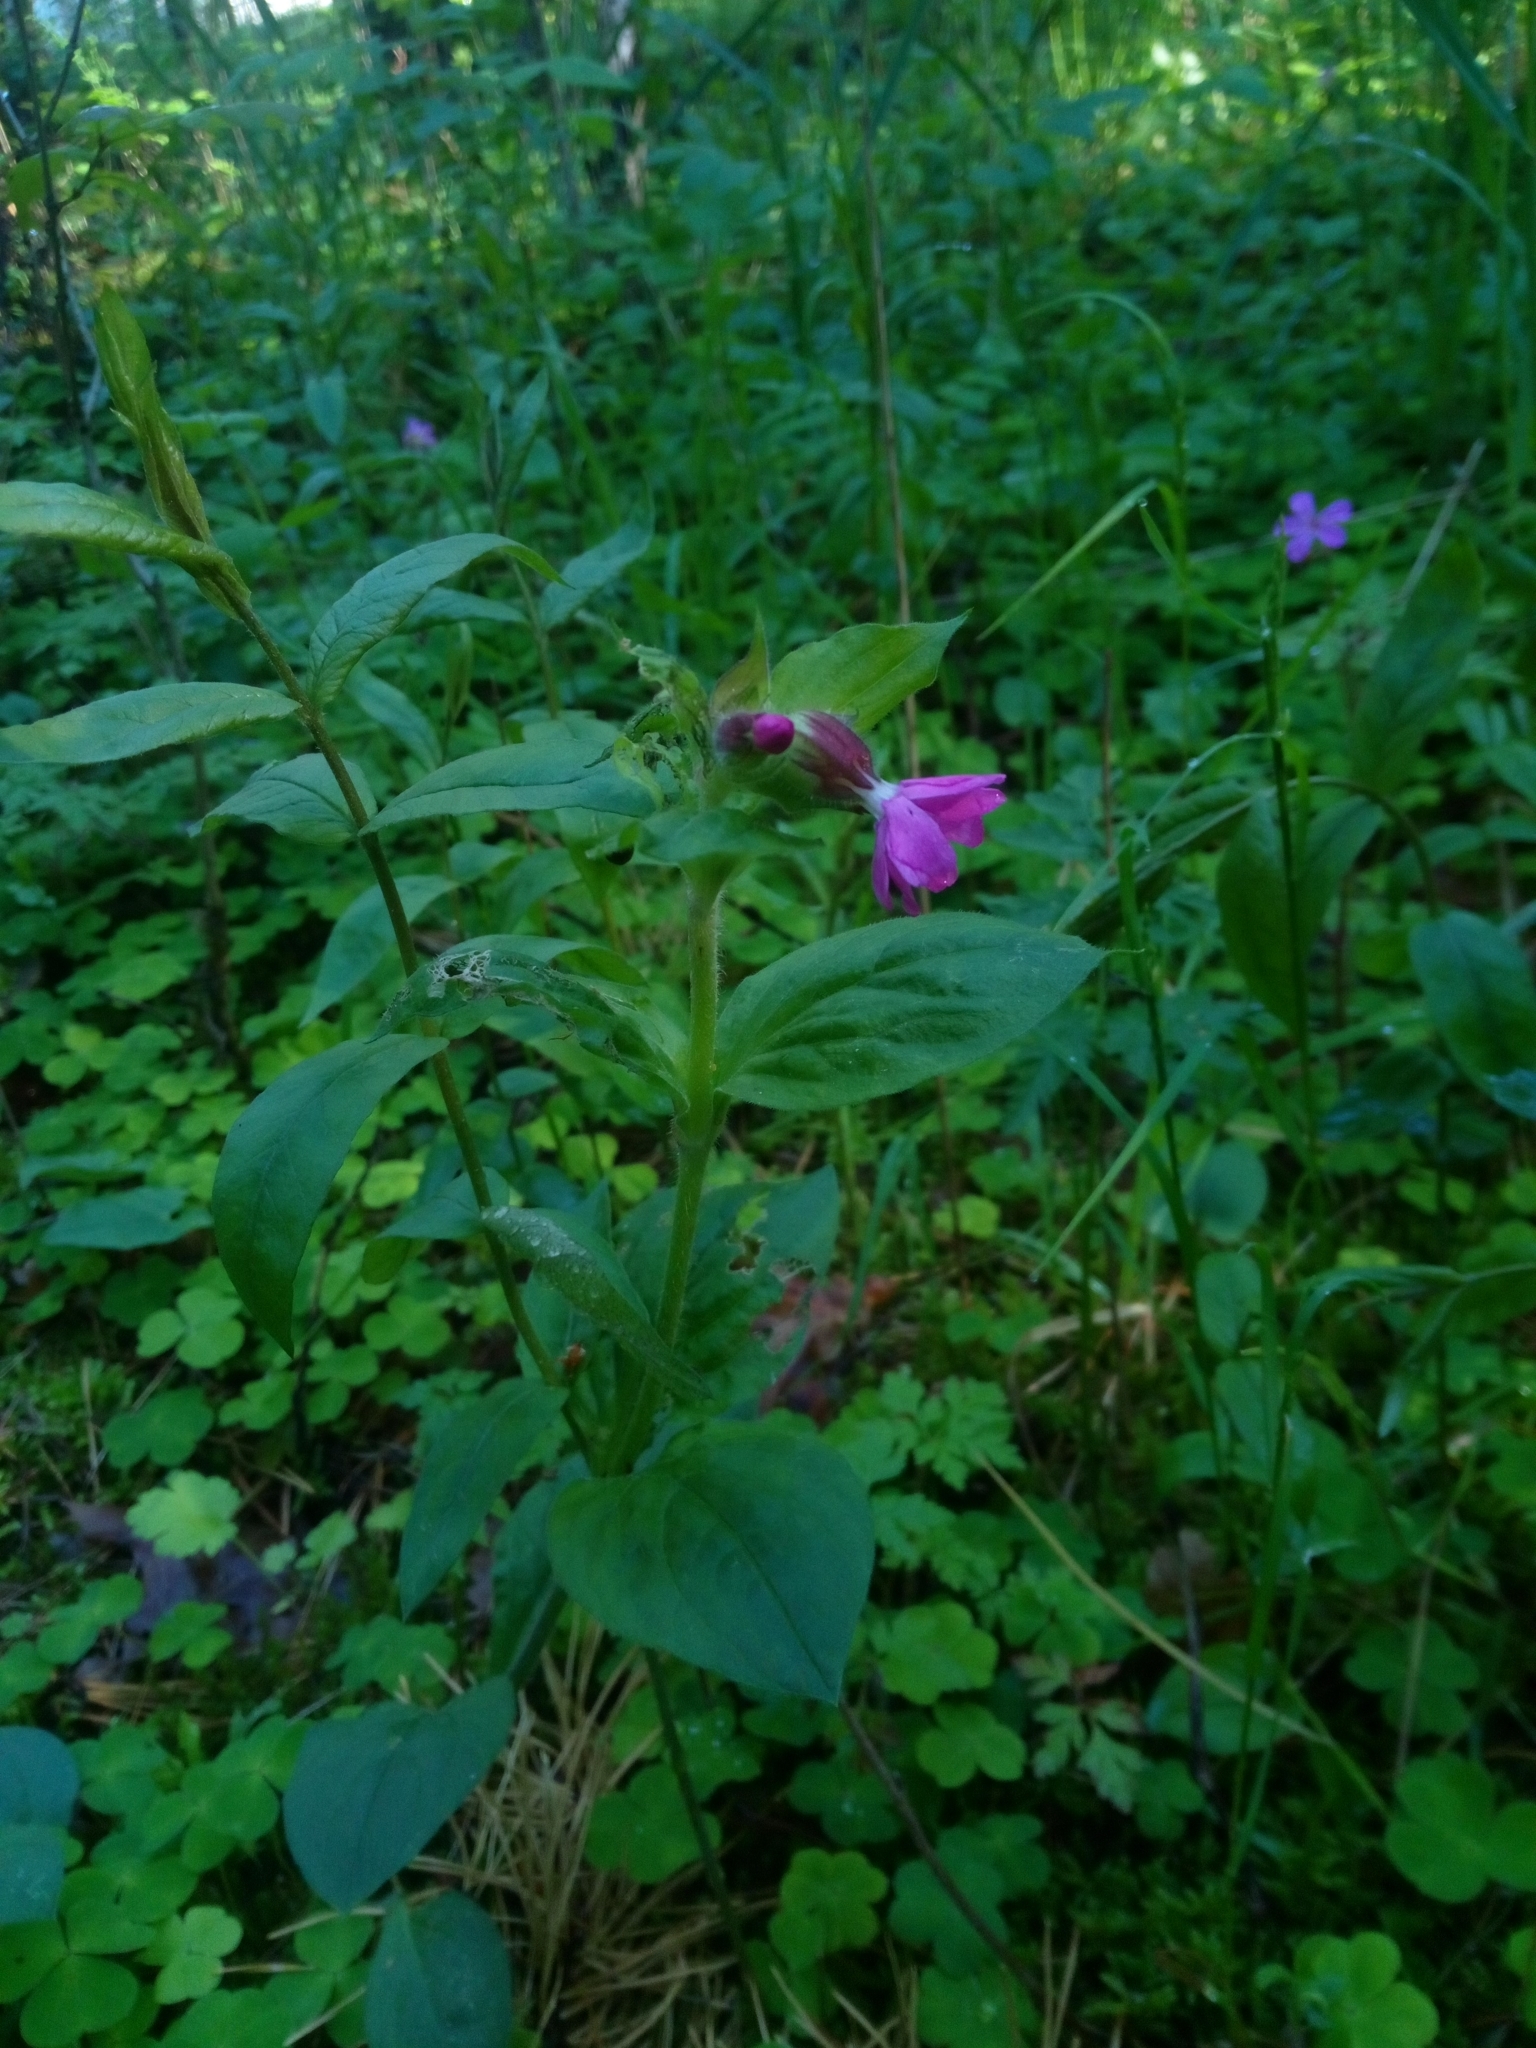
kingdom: Plantae
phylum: Tracheophyta
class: Magnoliopsida
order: Caryophyllales
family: Caryophyllaceae
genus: Silene
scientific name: Silene dioica
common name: Red campion
